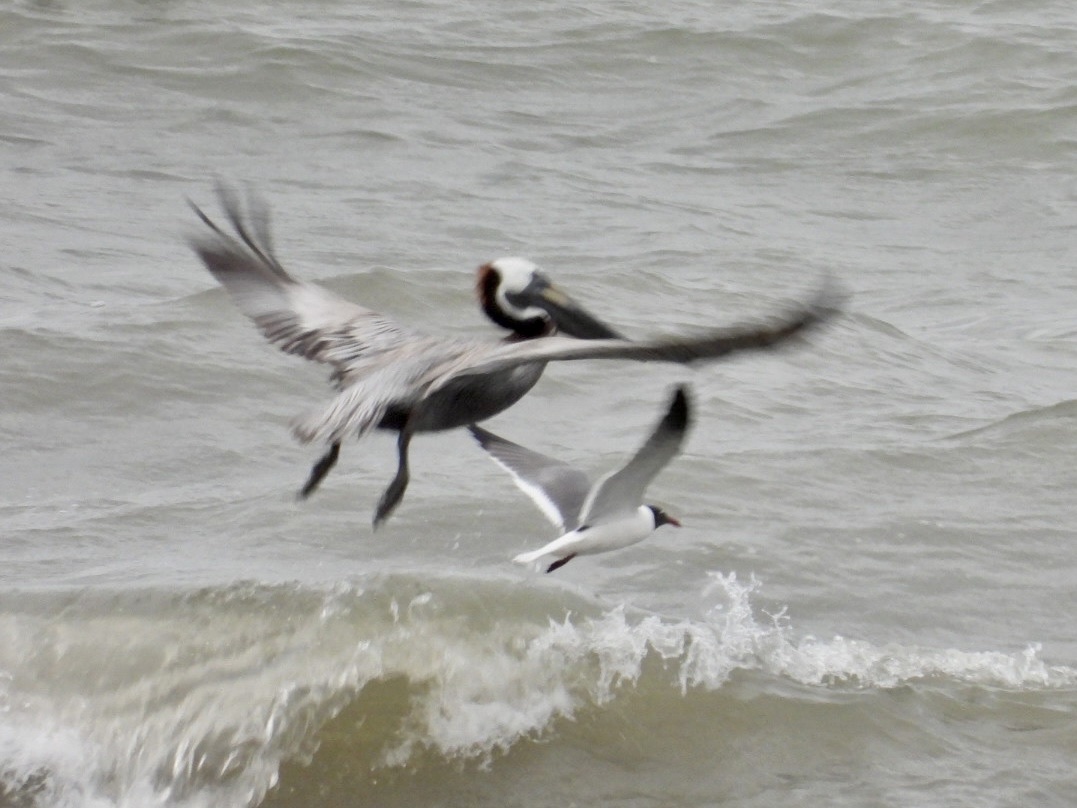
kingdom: Animalia
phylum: Chordata
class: Aves
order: Charadriiformes
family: Laridae
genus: Leucophaeus
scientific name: Leucophaeus atricilla
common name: Laughing gull
